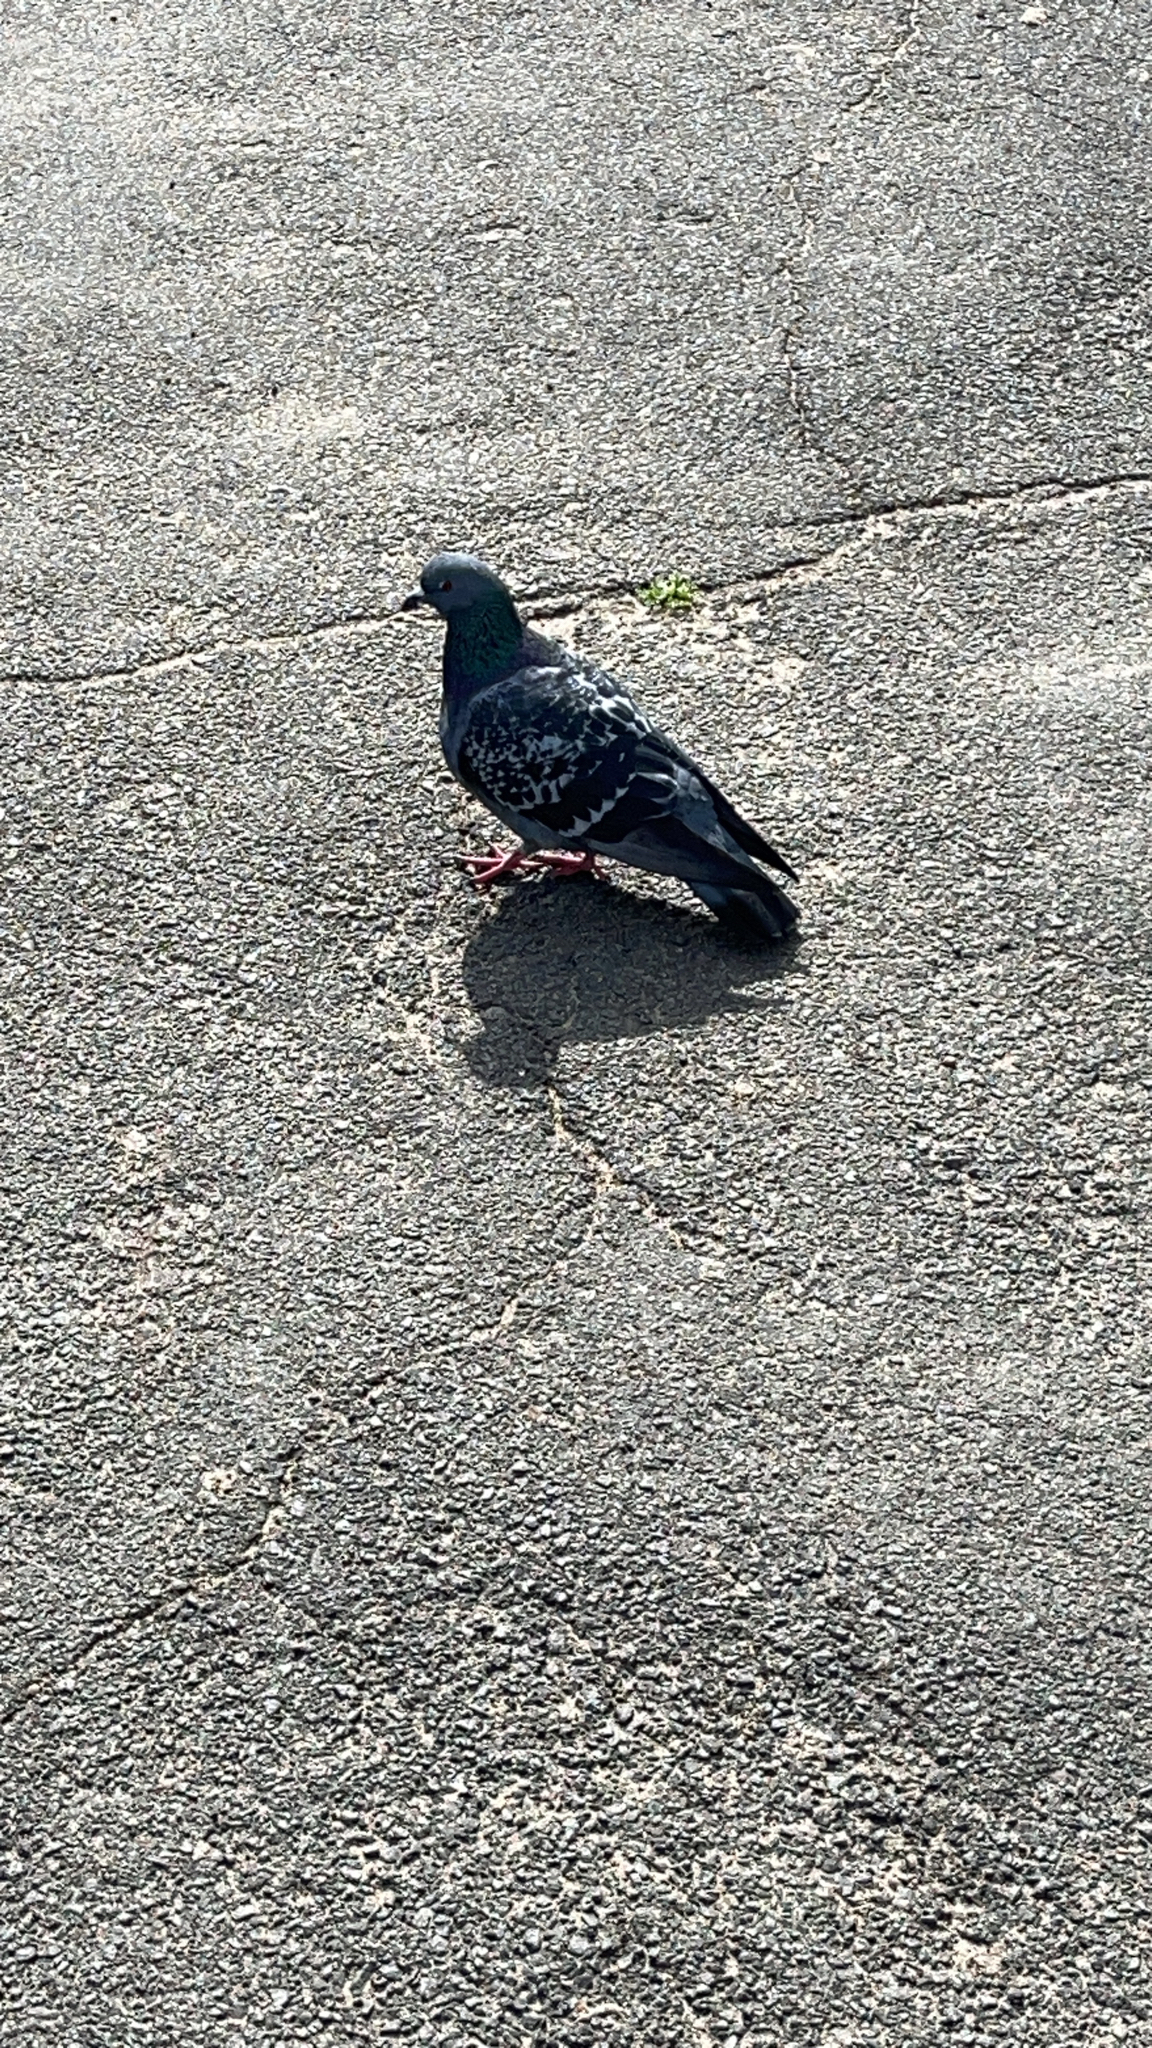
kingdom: Animalia
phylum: Chordata
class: Aves
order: Columbiformes
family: Columbidae
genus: Columba
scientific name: Columba livia
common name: Rock pigeon
